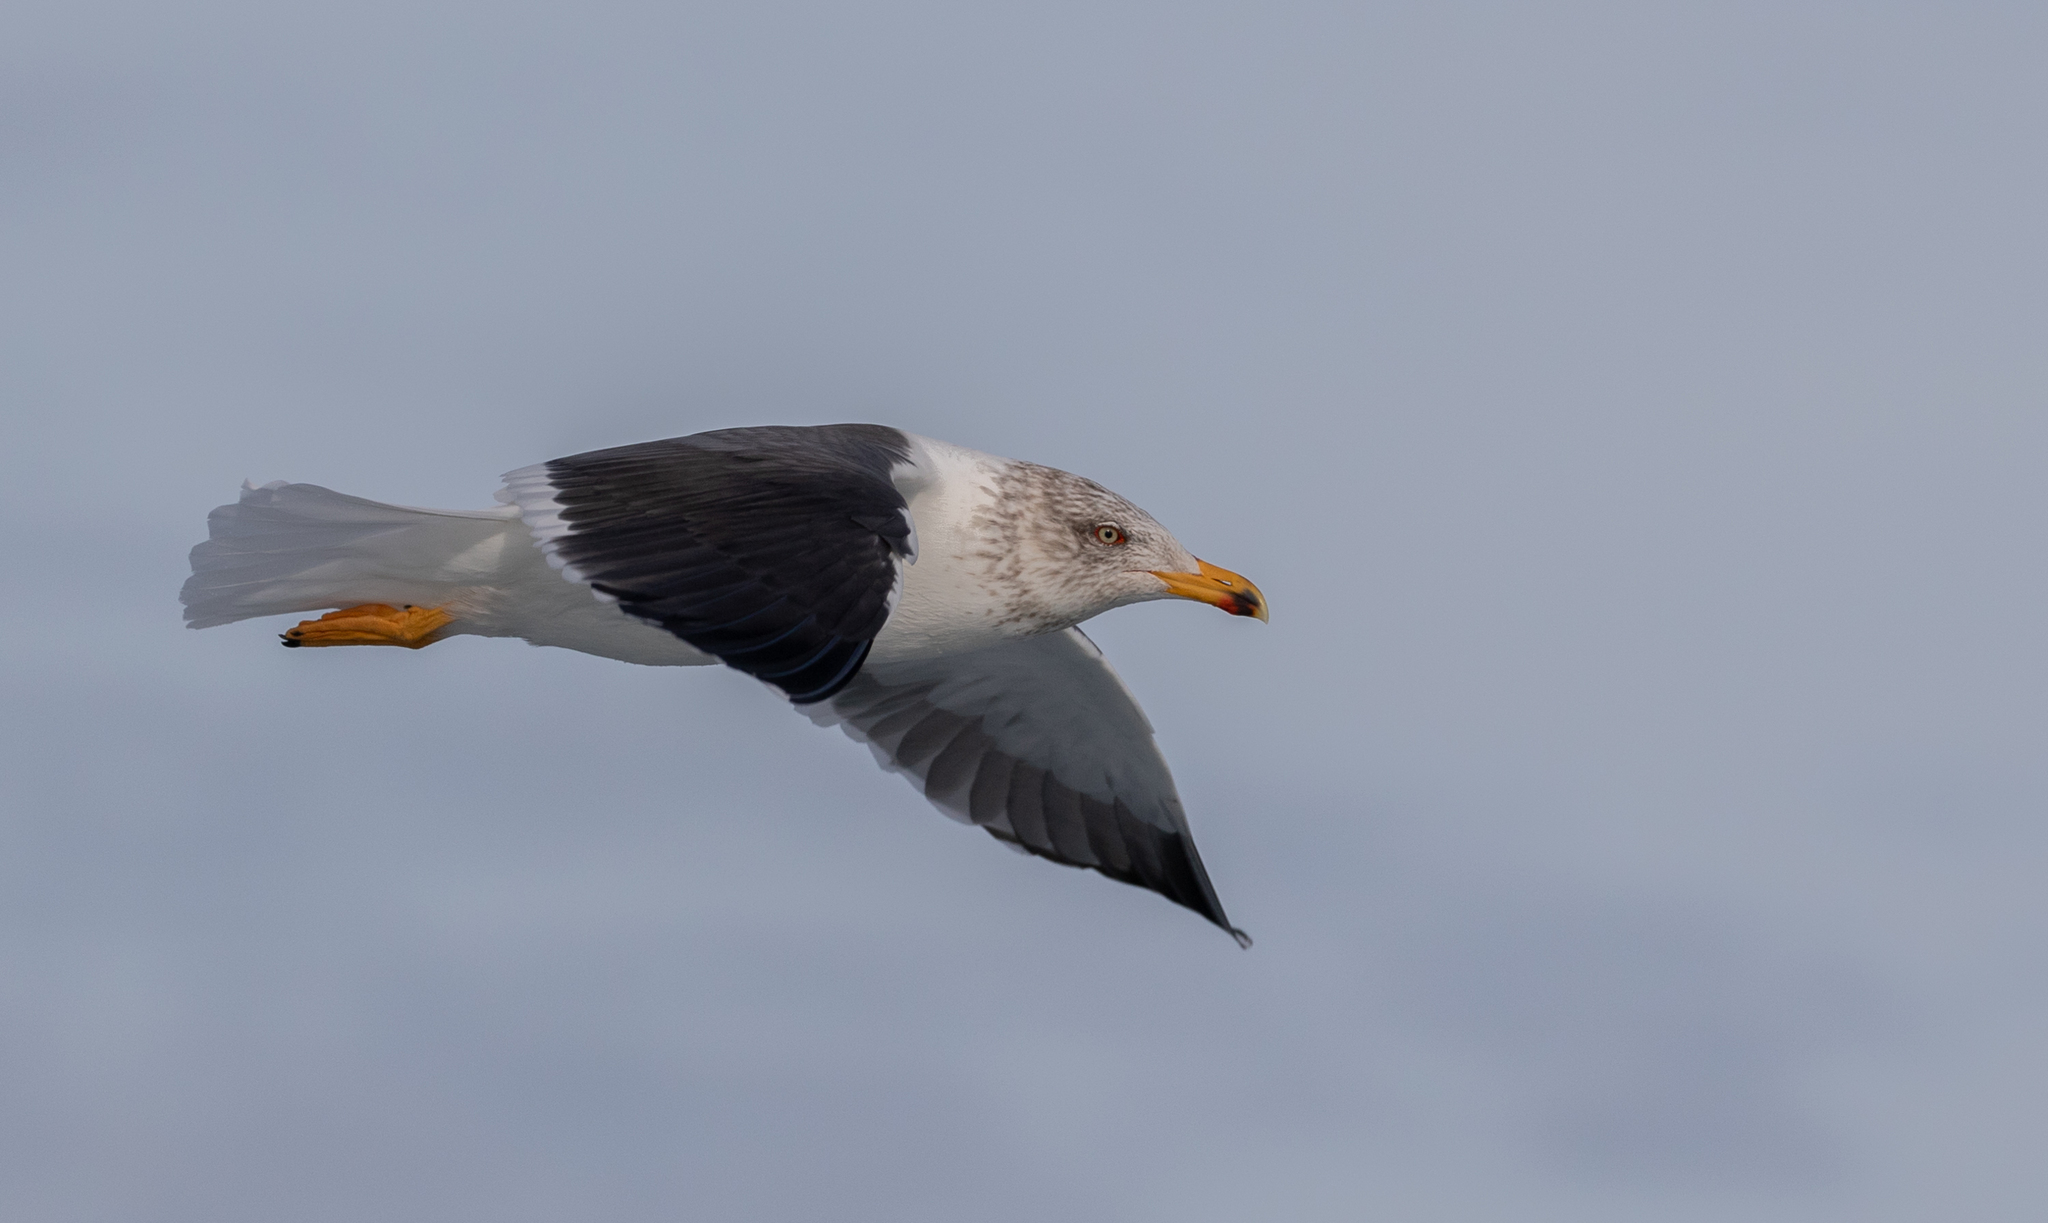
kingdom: Animalia
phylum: Chordata
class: Aves
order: Charadriiformes
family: Laridae
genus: Larus
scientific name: Larus fuscus
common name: Lesser black-backed gull
